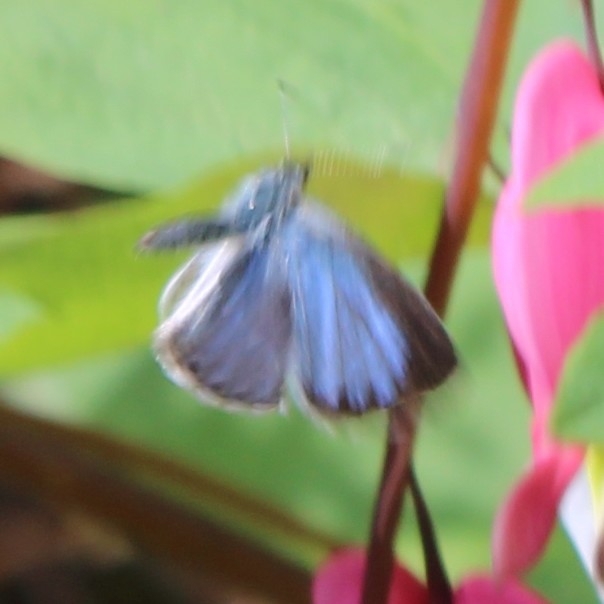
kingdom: Animalia
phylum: Arthropoda
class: Insecta
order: Lepidoptera
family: Lycaenidae
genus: Celastrina
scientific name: Celastrina lucia
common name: Lucia azure
